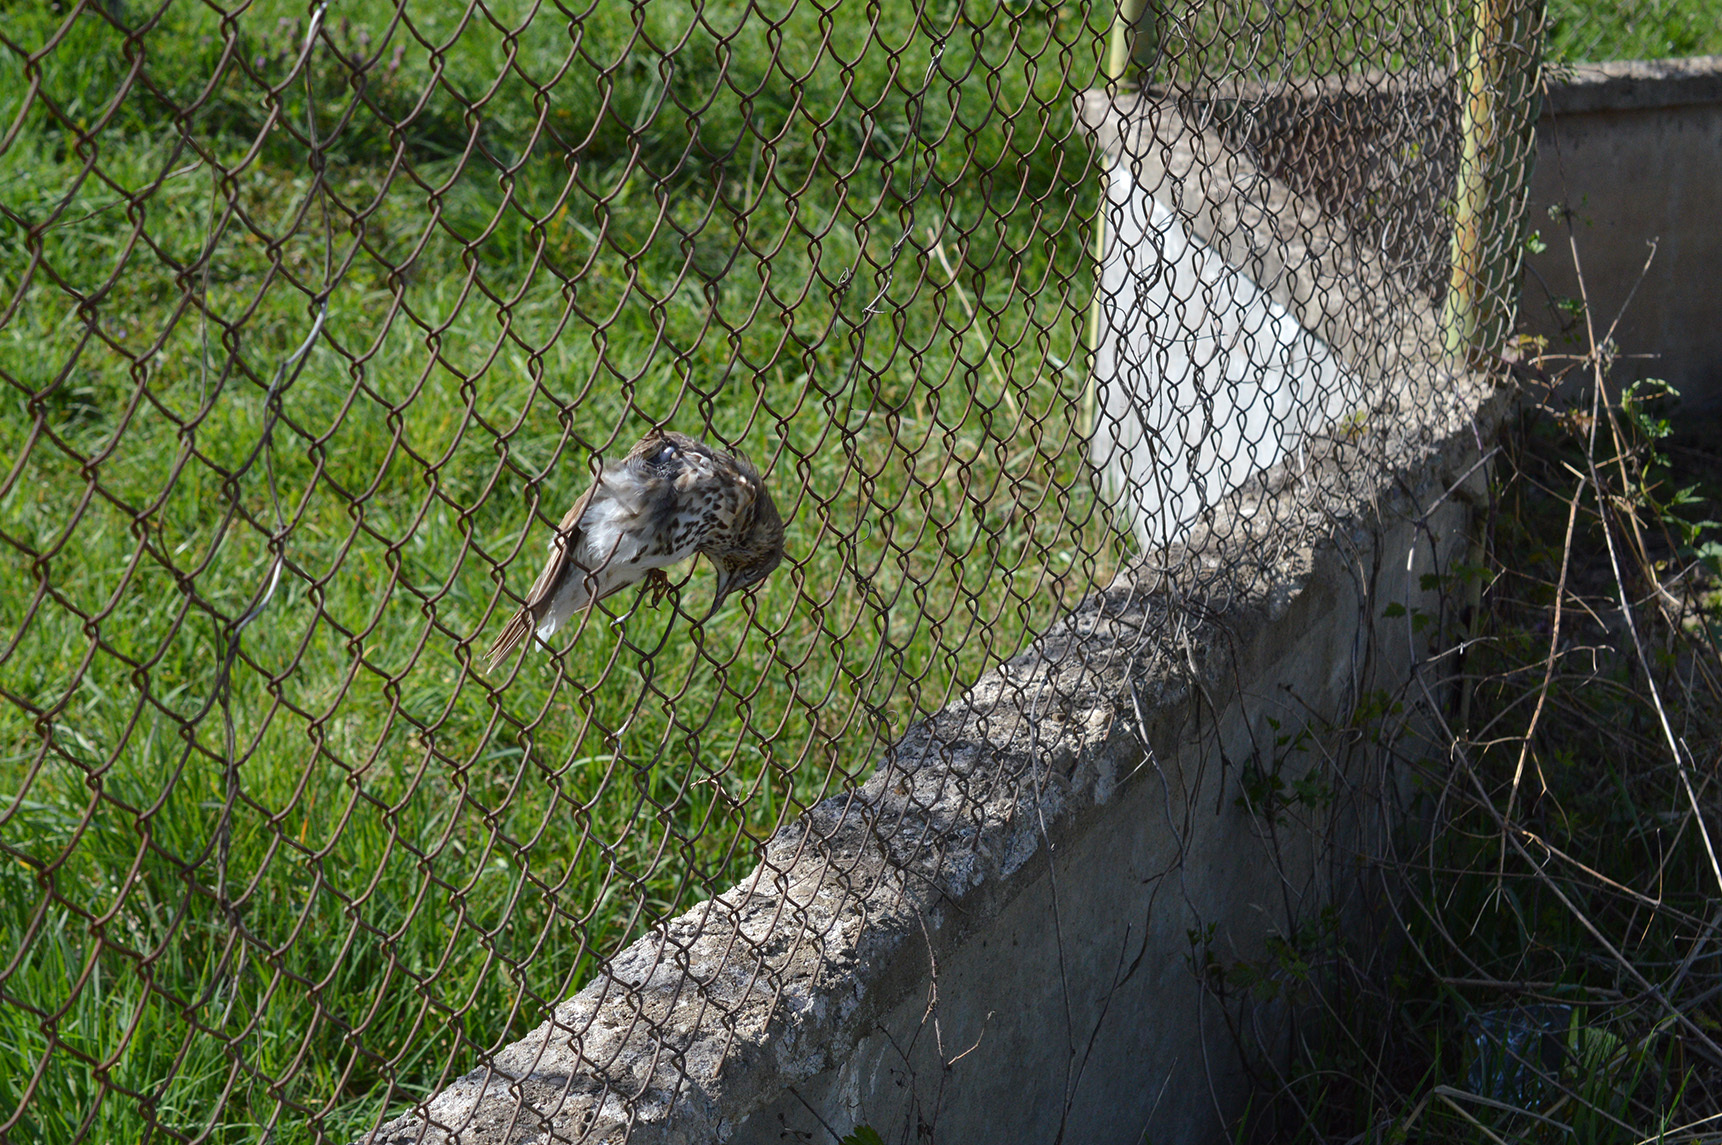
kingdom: Animalia
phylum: Chordata
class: Aves
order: Passeriformes
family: Turdidae
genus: Turdus
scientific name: Turdus philomelos
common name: Song thrush
